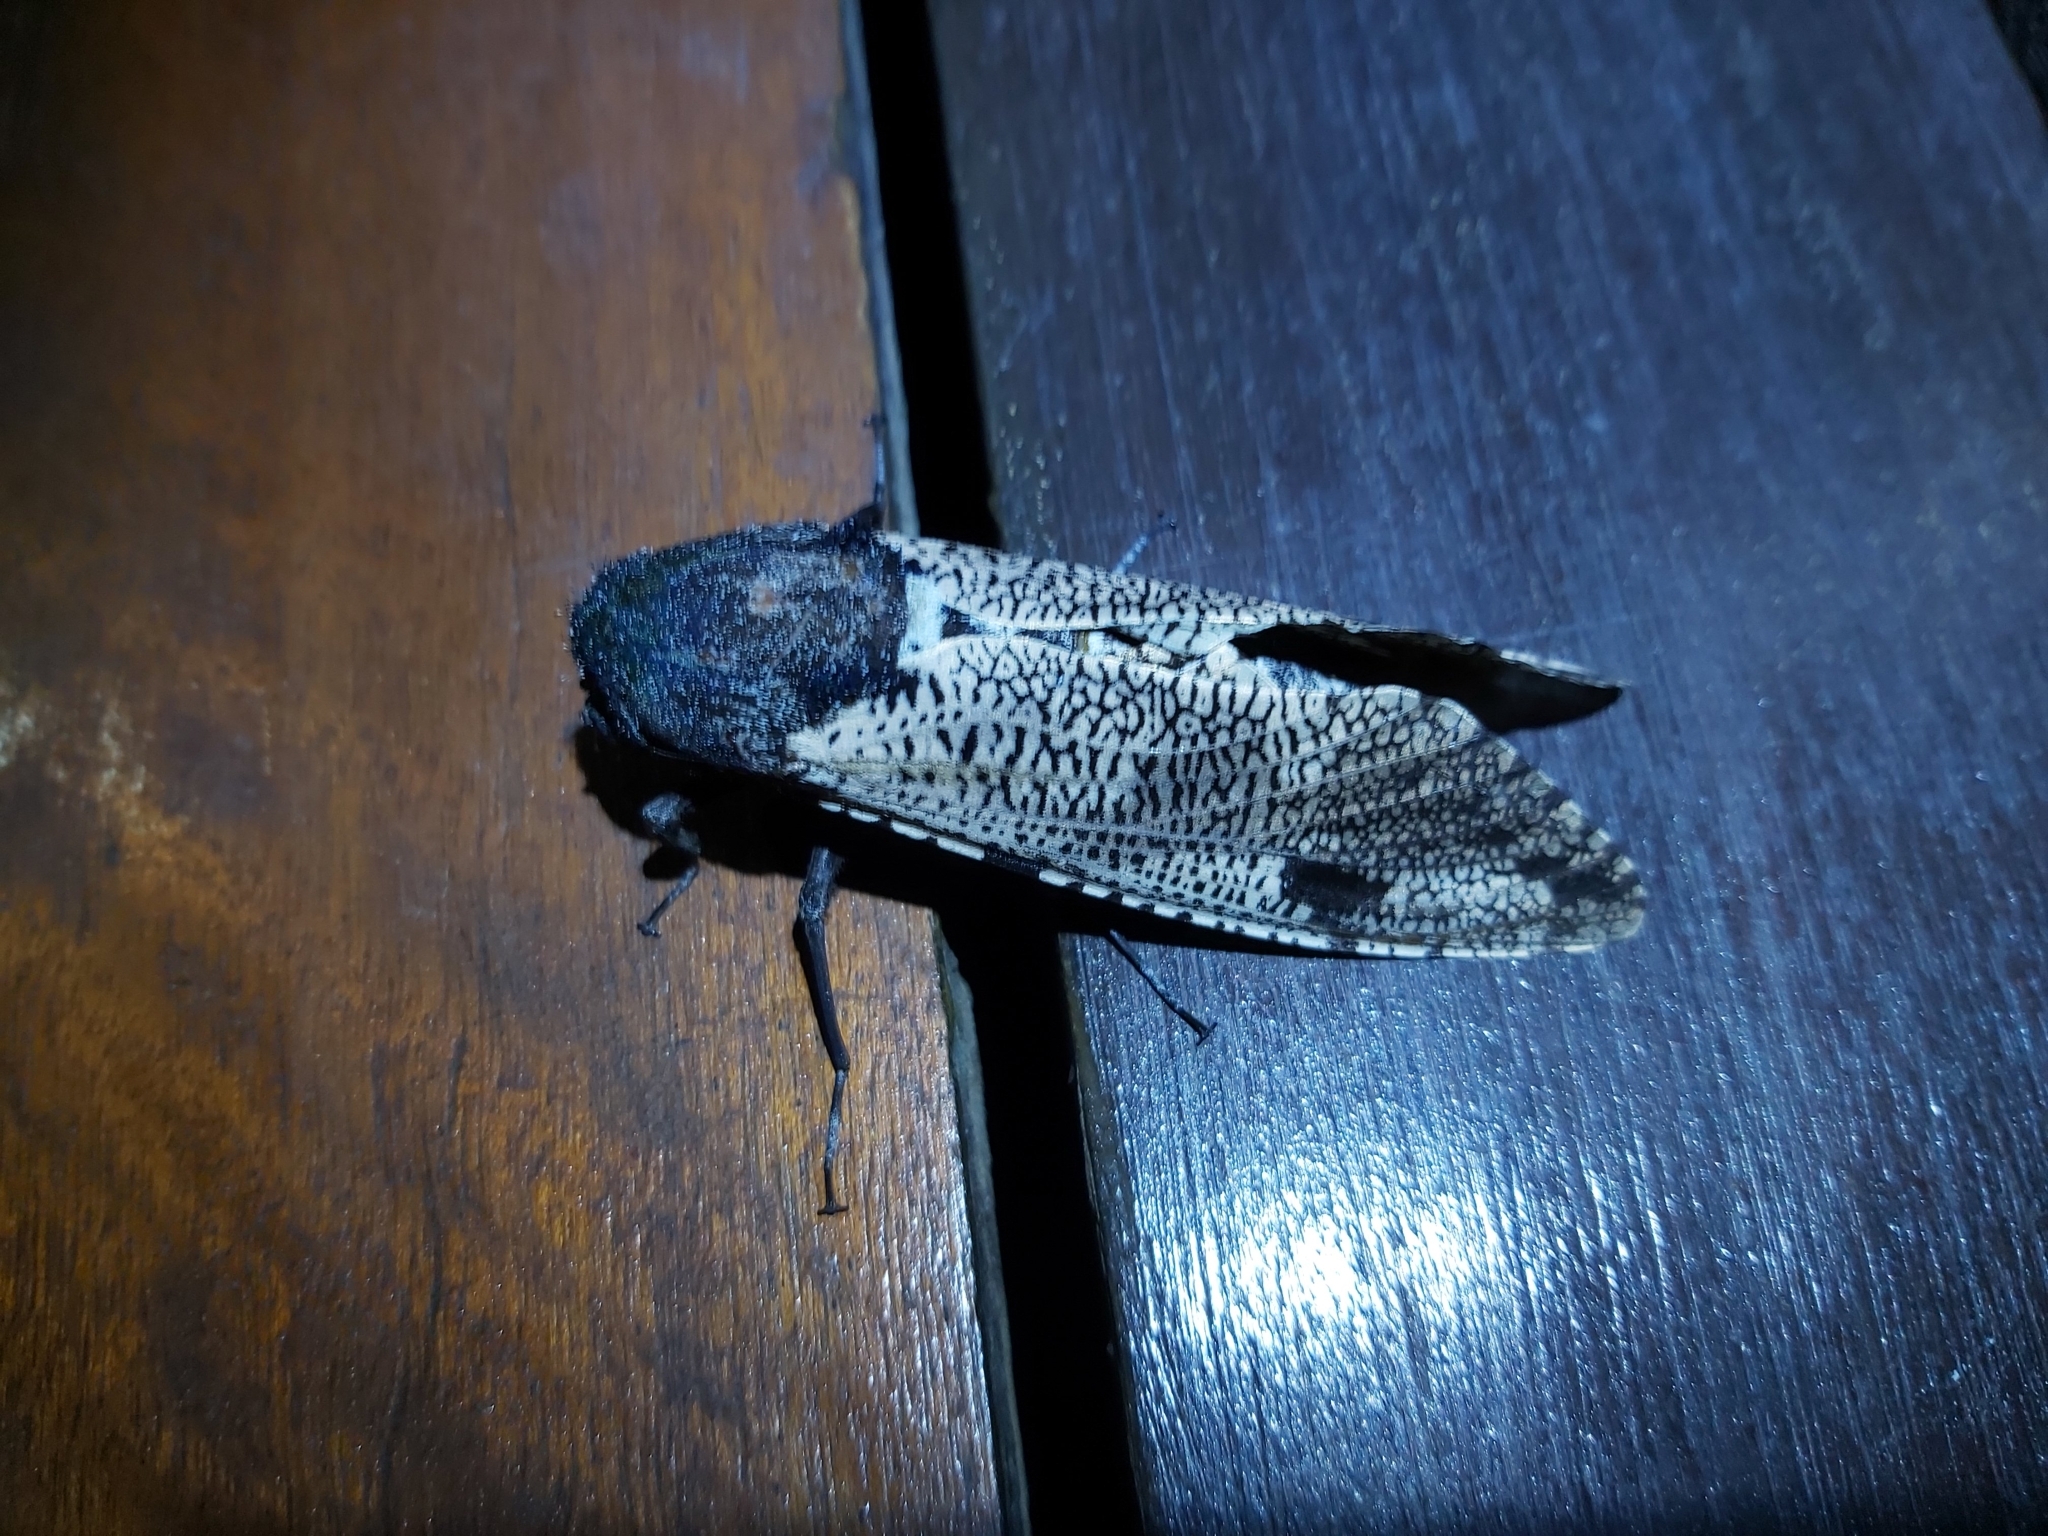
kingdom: Animalia
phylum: Arthropoda
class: Insecta
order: Lepidoptera
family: Cossidae
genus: Xyleutes
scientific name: Xyleutes strix
